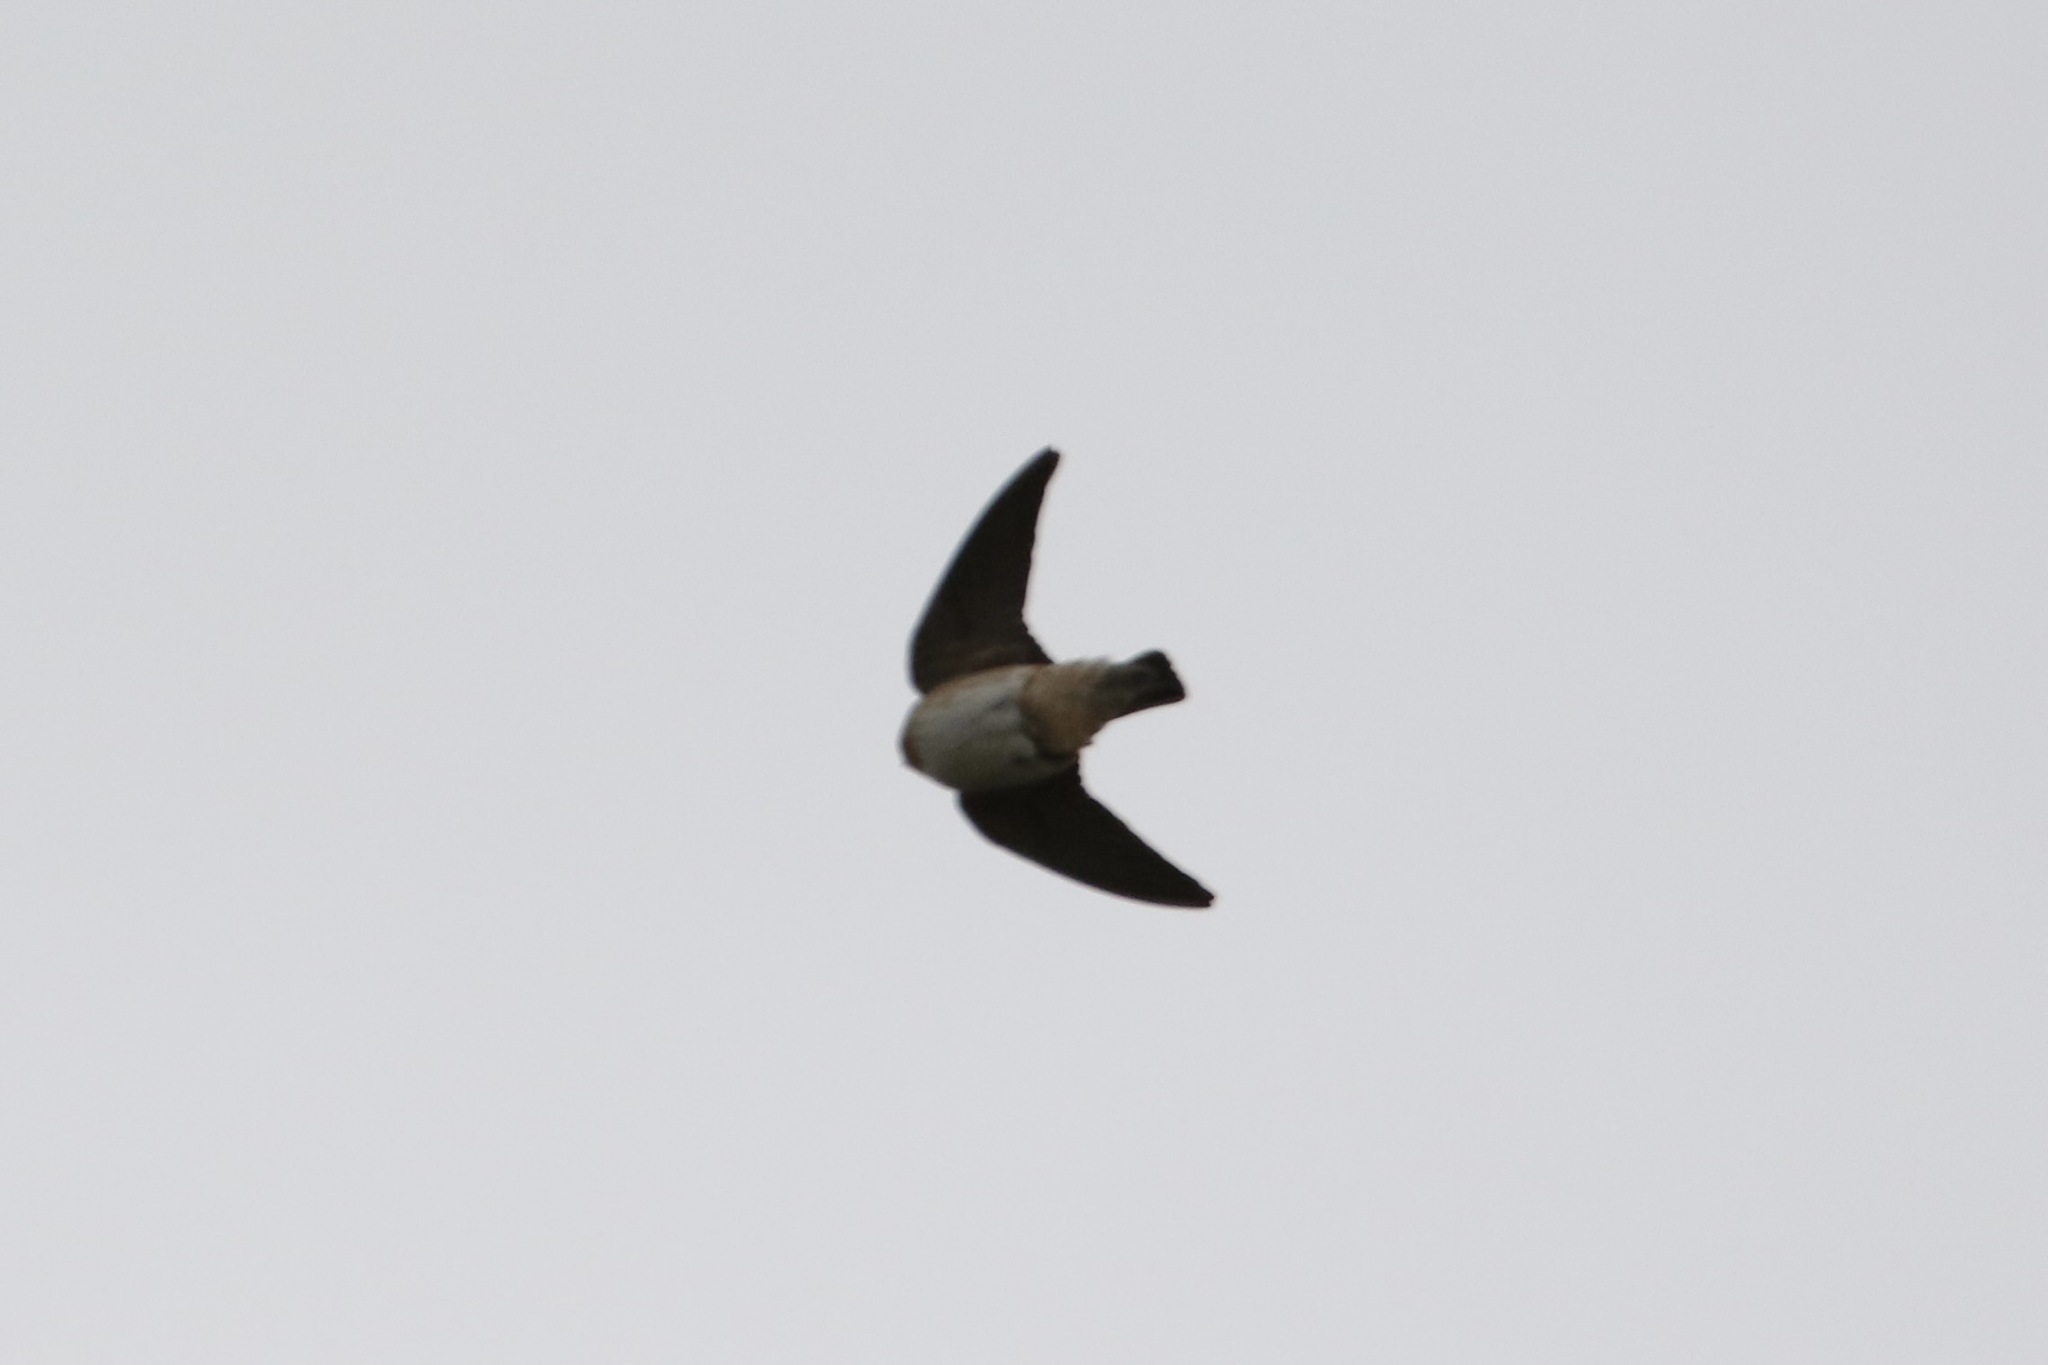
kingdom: Animalia
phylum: Chordata
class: Aves
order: Passeriformes
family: Hirundinidae
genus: Petrochelidon
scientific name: Petrochelidon fulva
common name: Cave swallow
